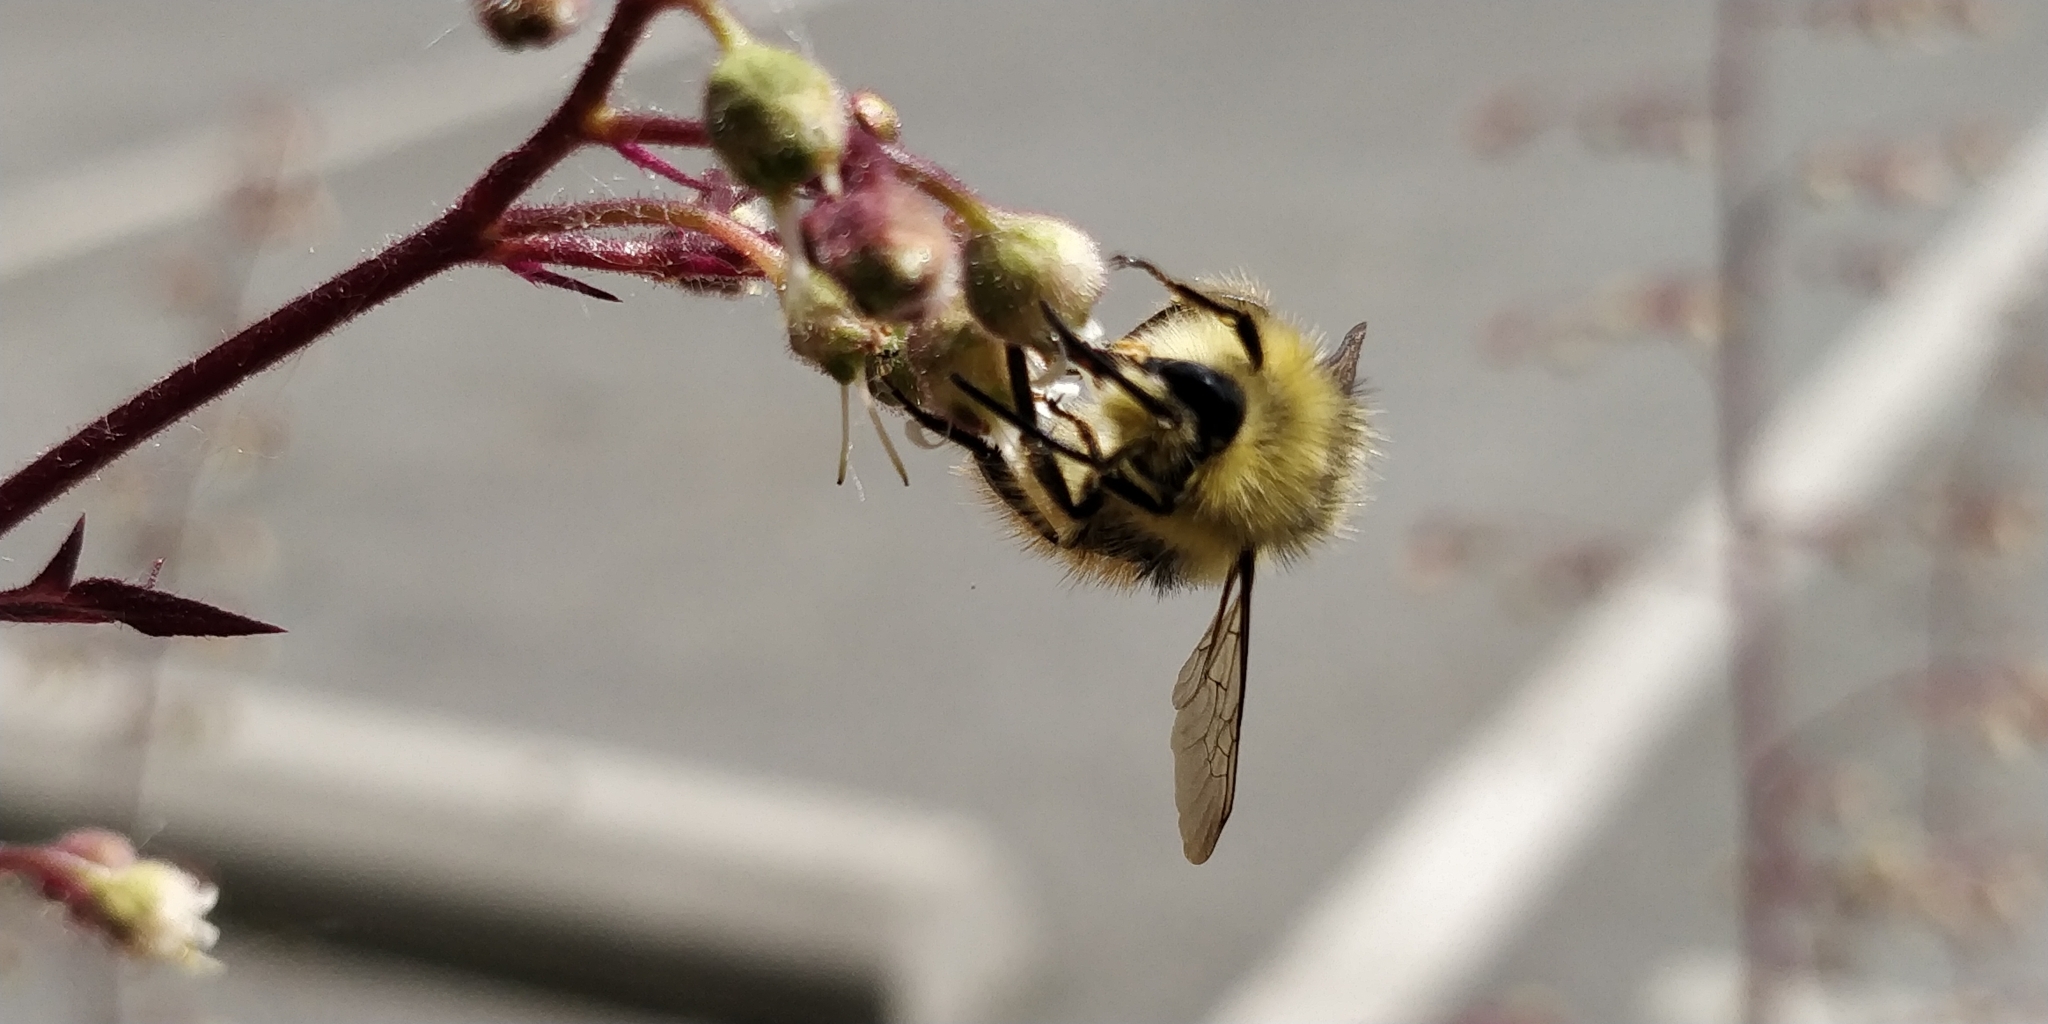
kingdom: Animalia
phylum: Arthropoda
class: Insecta
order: Hymenoptera
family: Apidae
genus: Bombus
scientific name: Bombus mixtus
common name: Fuzzy-horned bumble bee
